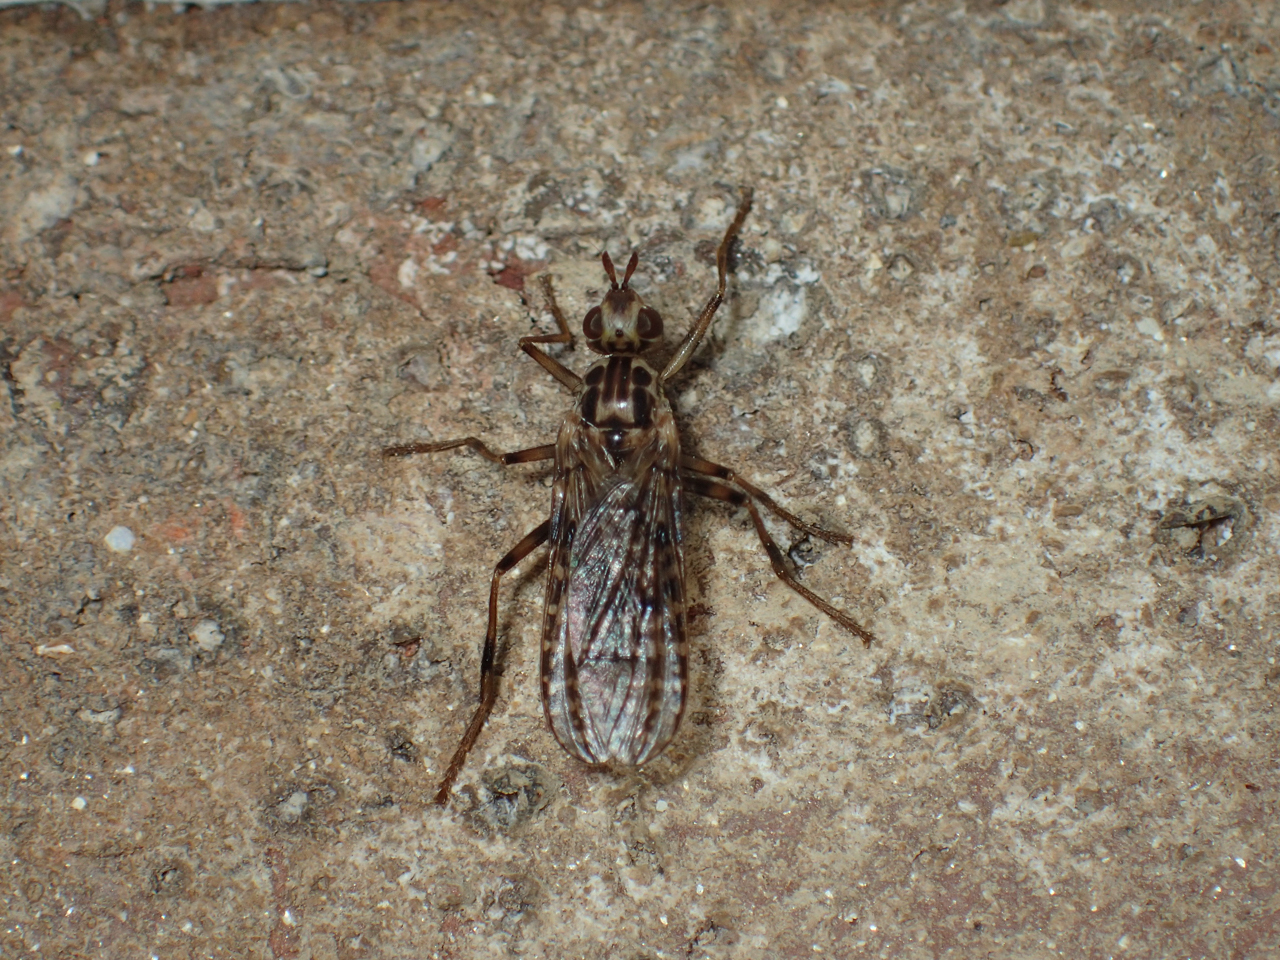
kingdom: Animalia
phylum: Arthropoda
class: Insecta
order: Diptera
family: Pyrgotidae
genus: Boreothrinax
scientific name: Boreothrinax
